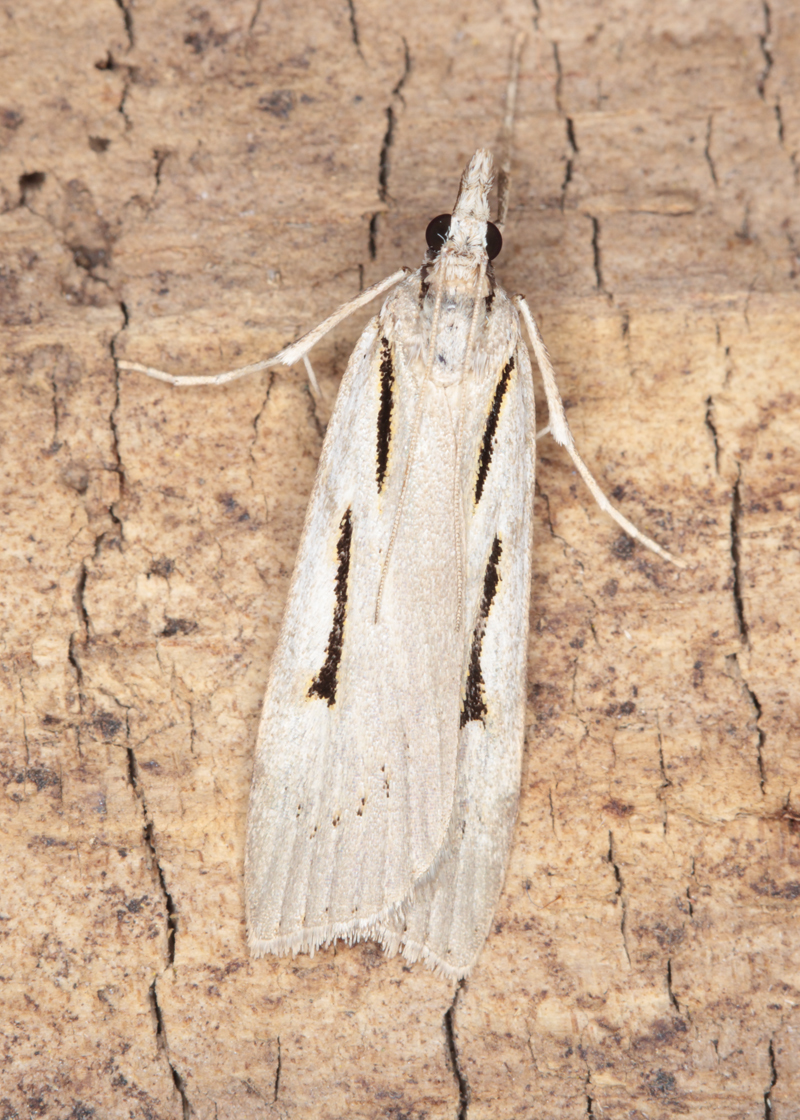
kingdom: Animalia
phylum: Arthropoda
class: Insecta
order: Lepidoptera
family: Crambidae
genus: Scoparia
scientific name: Scoparia rotuellus
